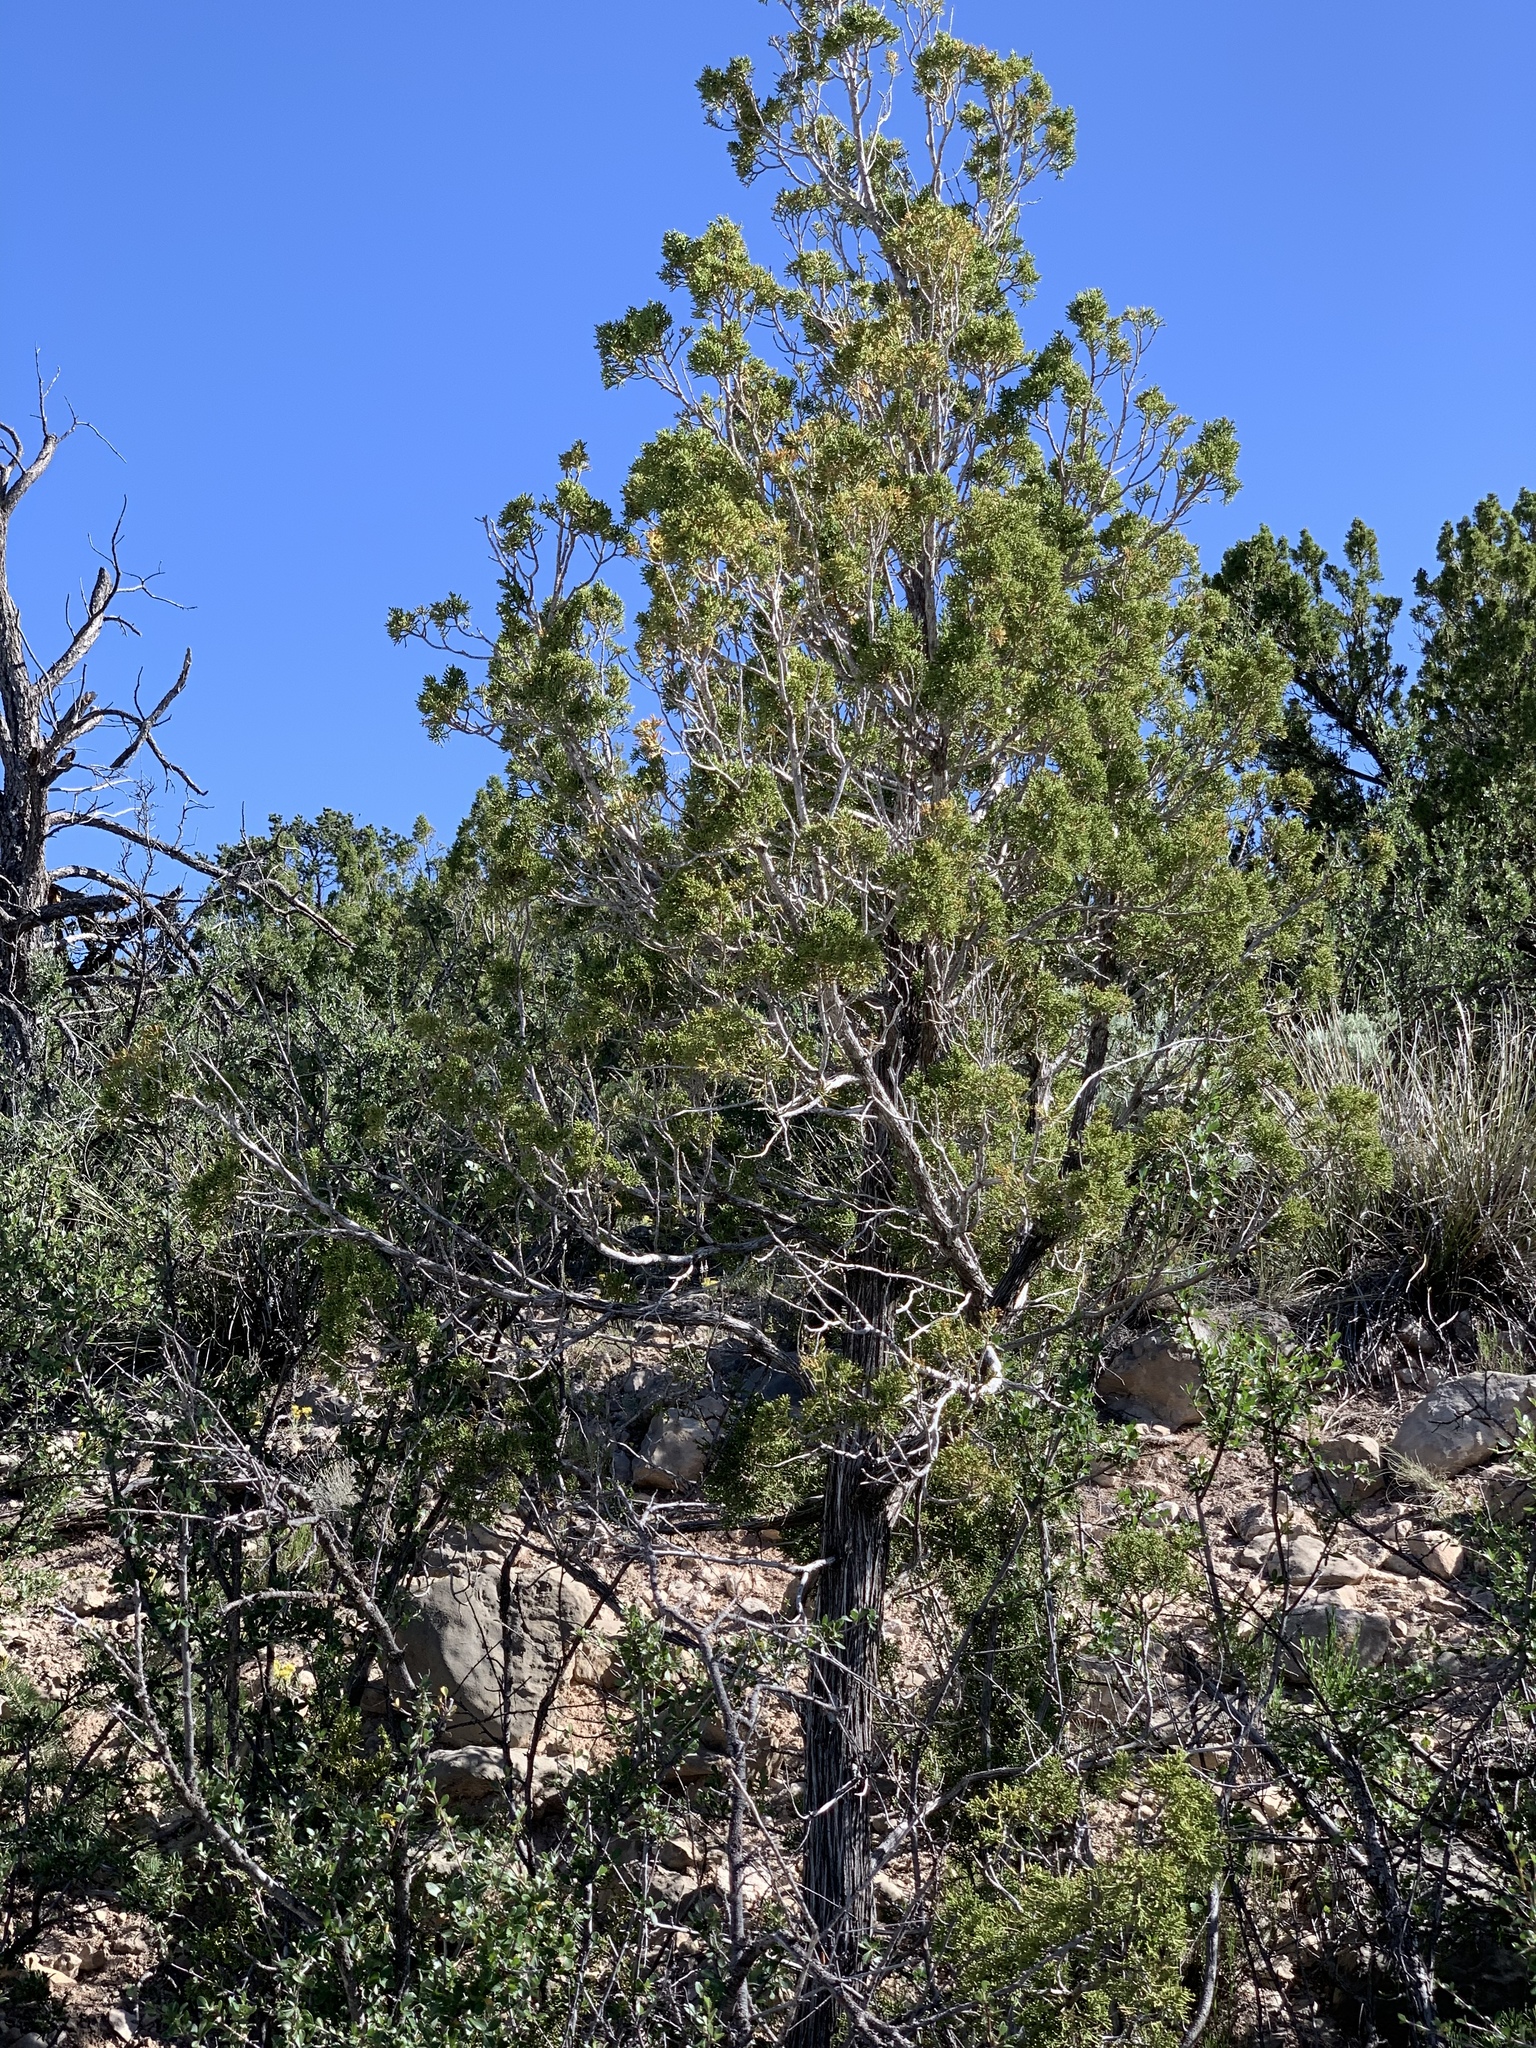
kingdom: Plantae
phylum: Tracheophyta
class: Pinopsida
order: Pinales
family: Cupressaceae
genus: Juniperus
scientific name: Juniperus monosperma
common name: One-seed juniper
